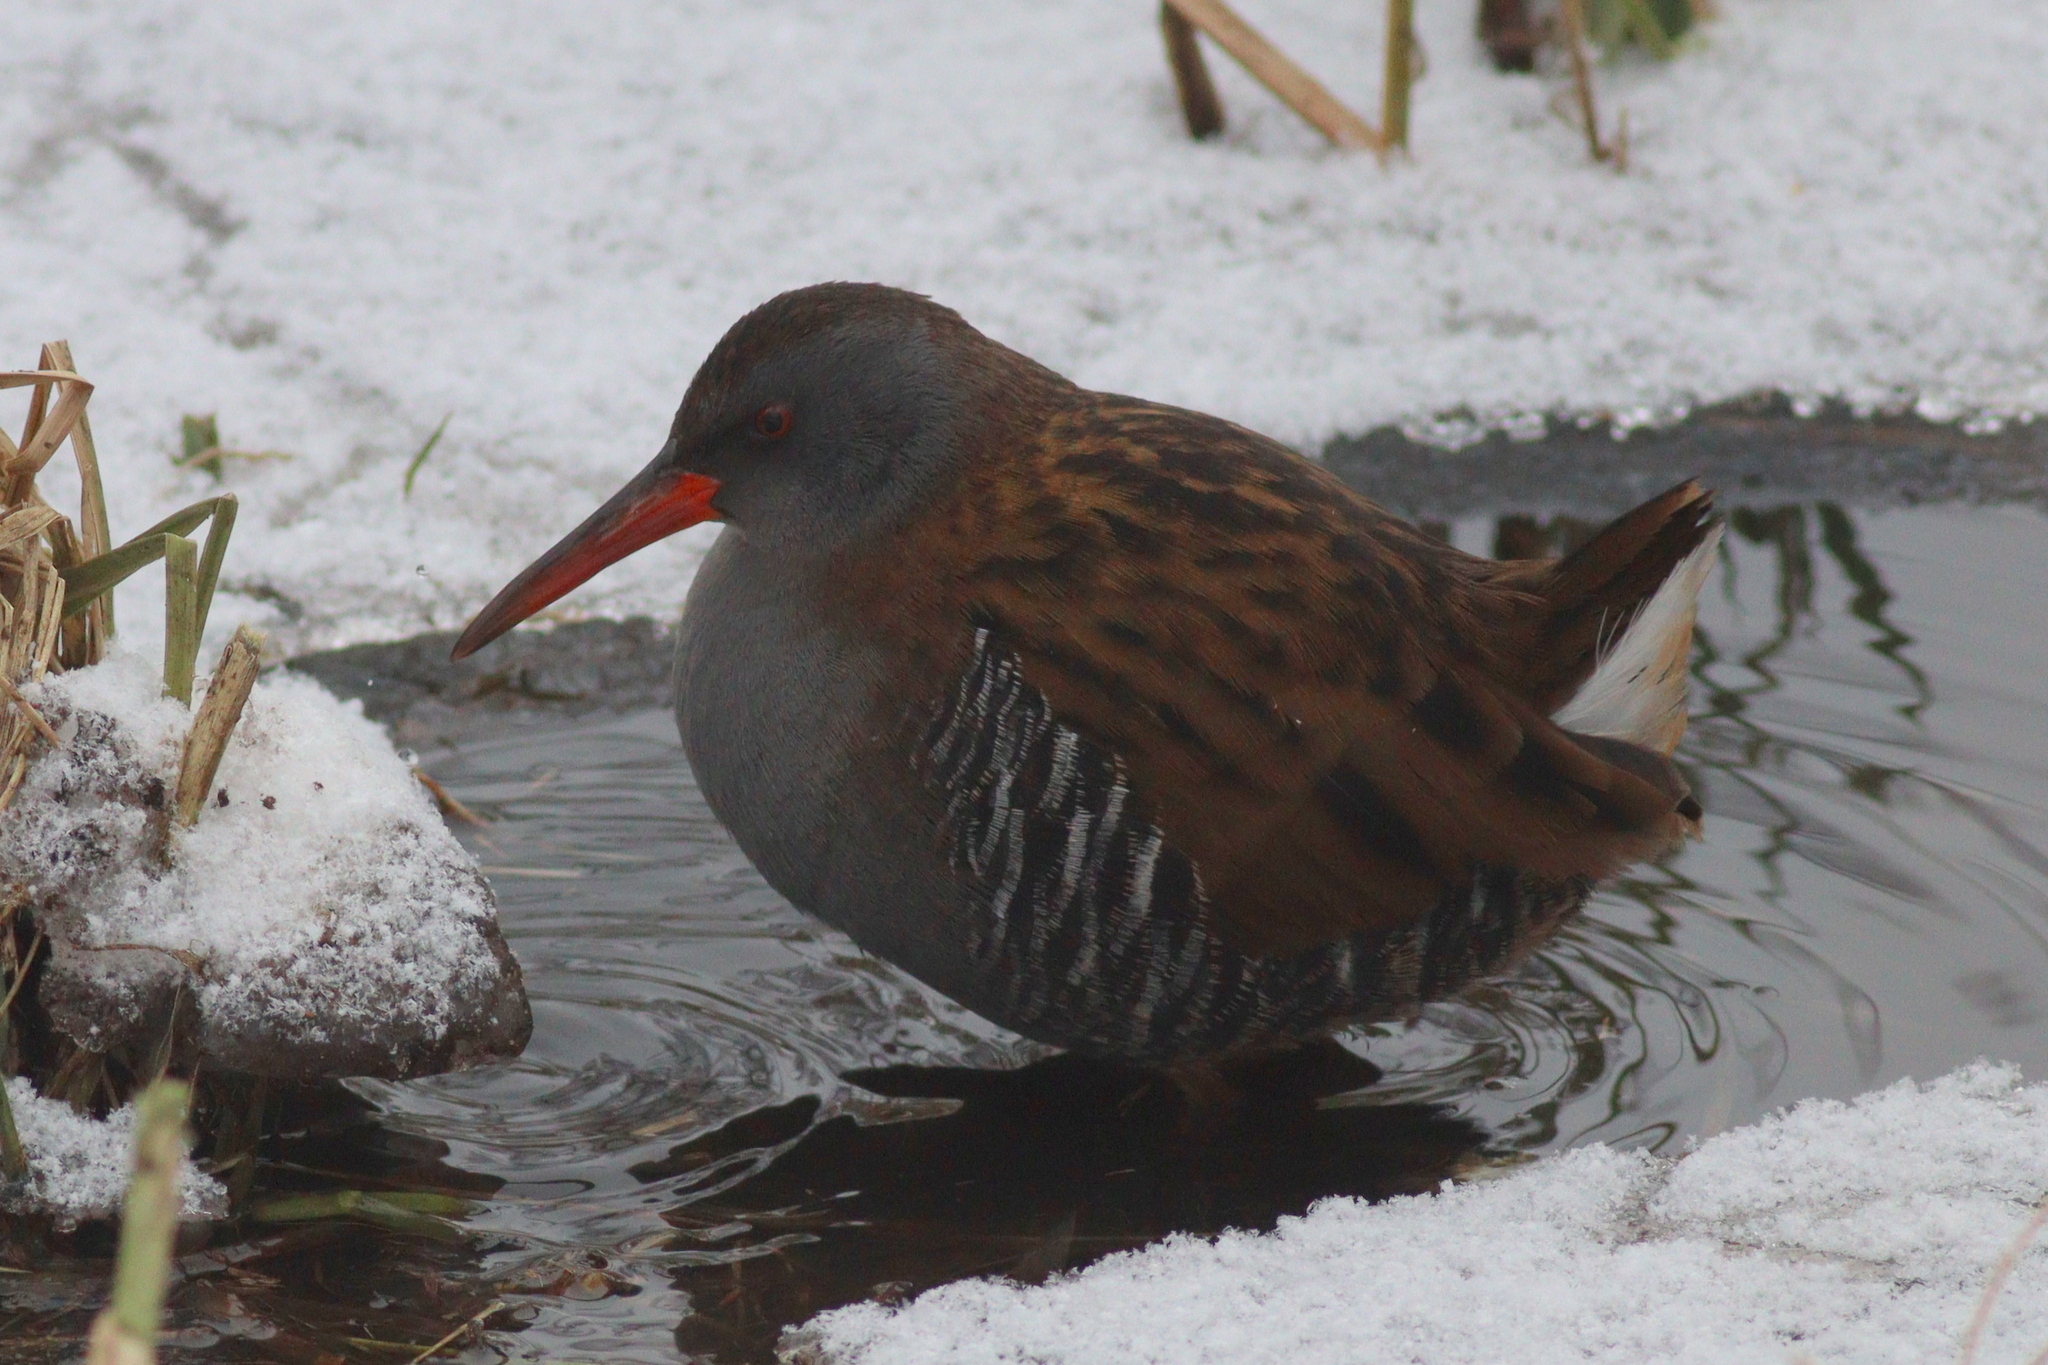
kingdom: Animalia
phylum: Chordata
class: Aves
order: Gruiformes
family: Rallidae
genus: Rallus
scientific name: Rallus aquaticus
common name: Water rail
